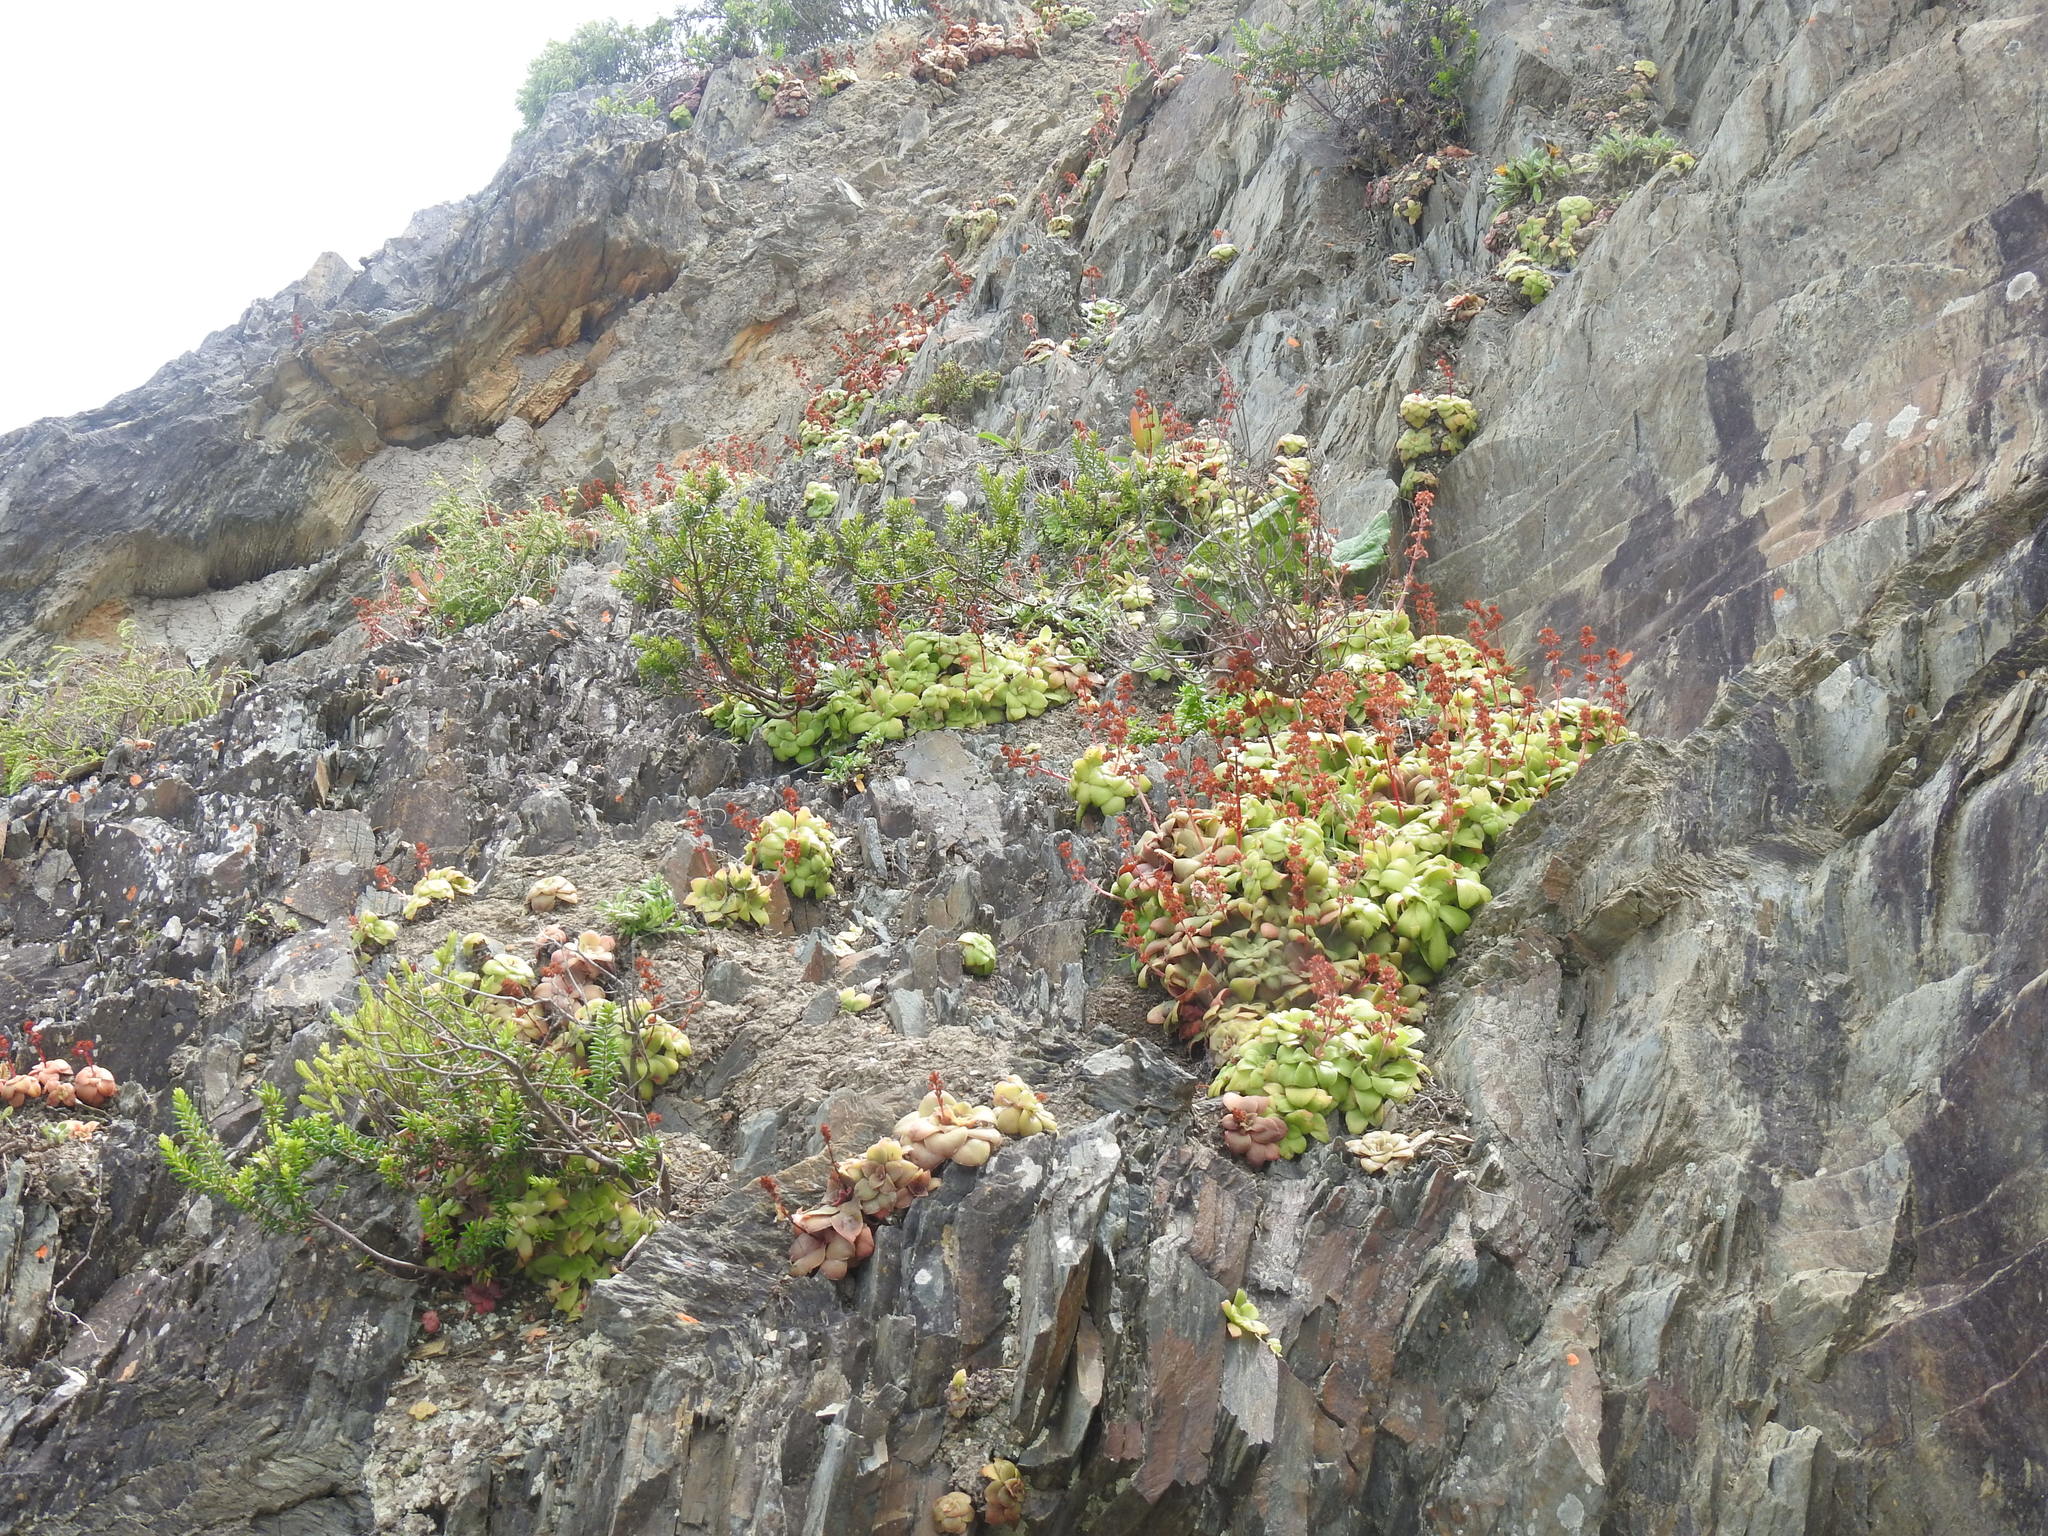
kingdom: Plantae
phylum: Tracheophyta
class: Magnoliopsida
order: Saxifragales
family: Crassulaceae
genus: Crassula
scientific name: Crassula orbicularis
